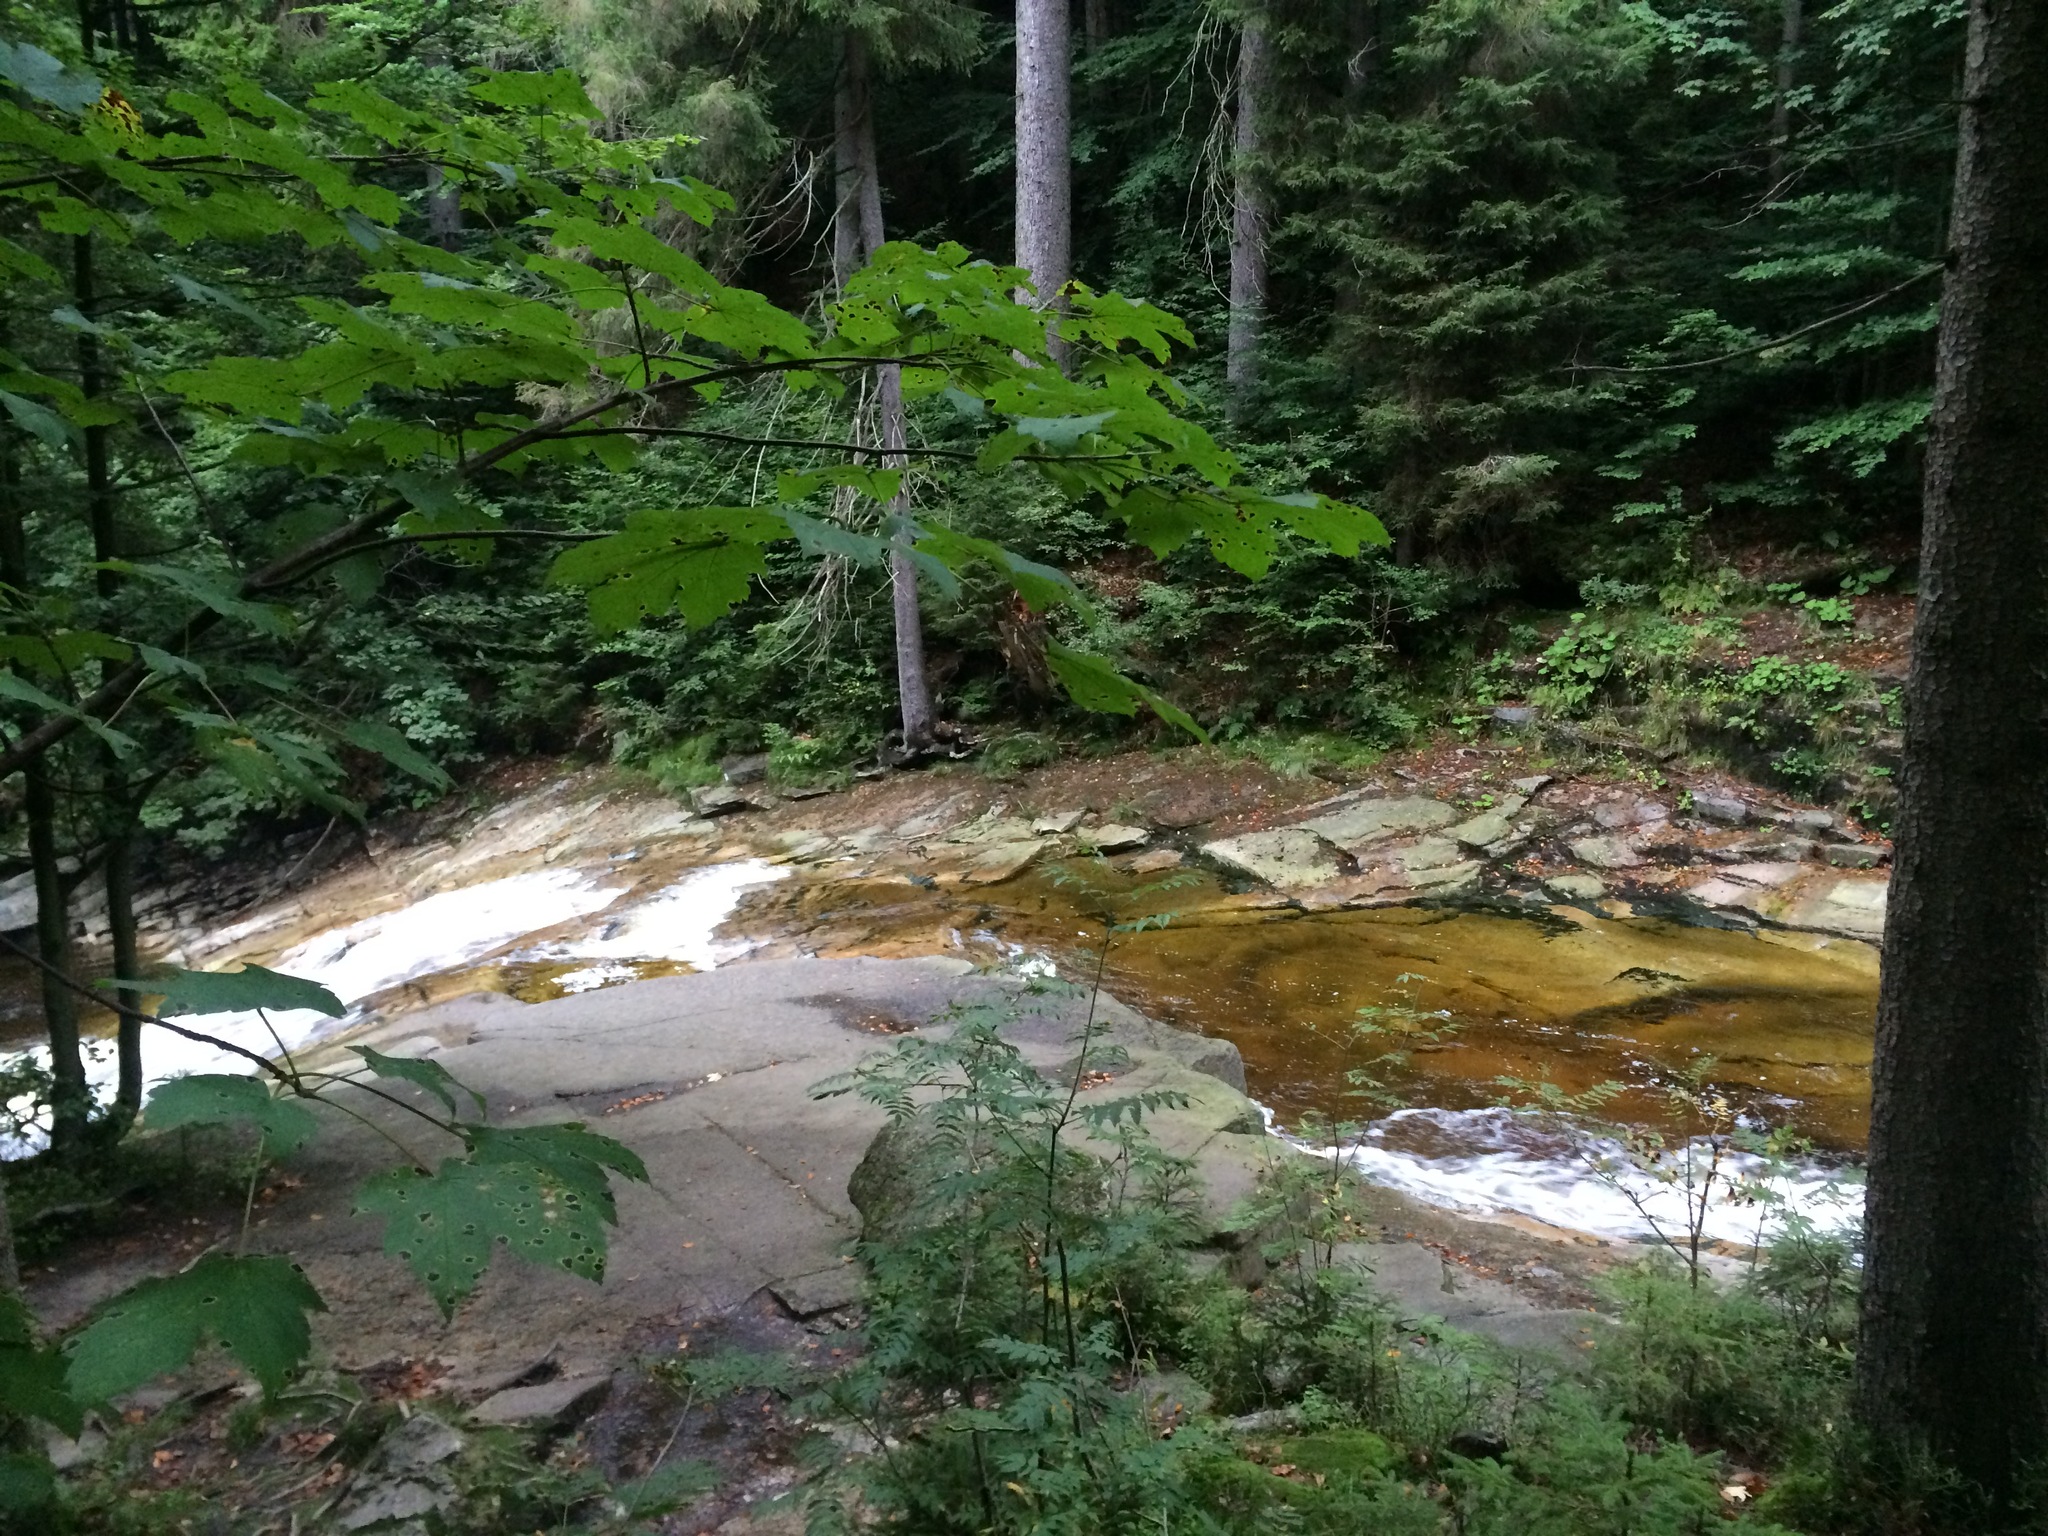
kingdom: Plantae
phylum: Tracheophyta
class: Magnoliopsida
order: Sapindales
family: Sapindaceae
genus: Acer
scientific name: Acer pseudoplatanus
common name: Sycamore
